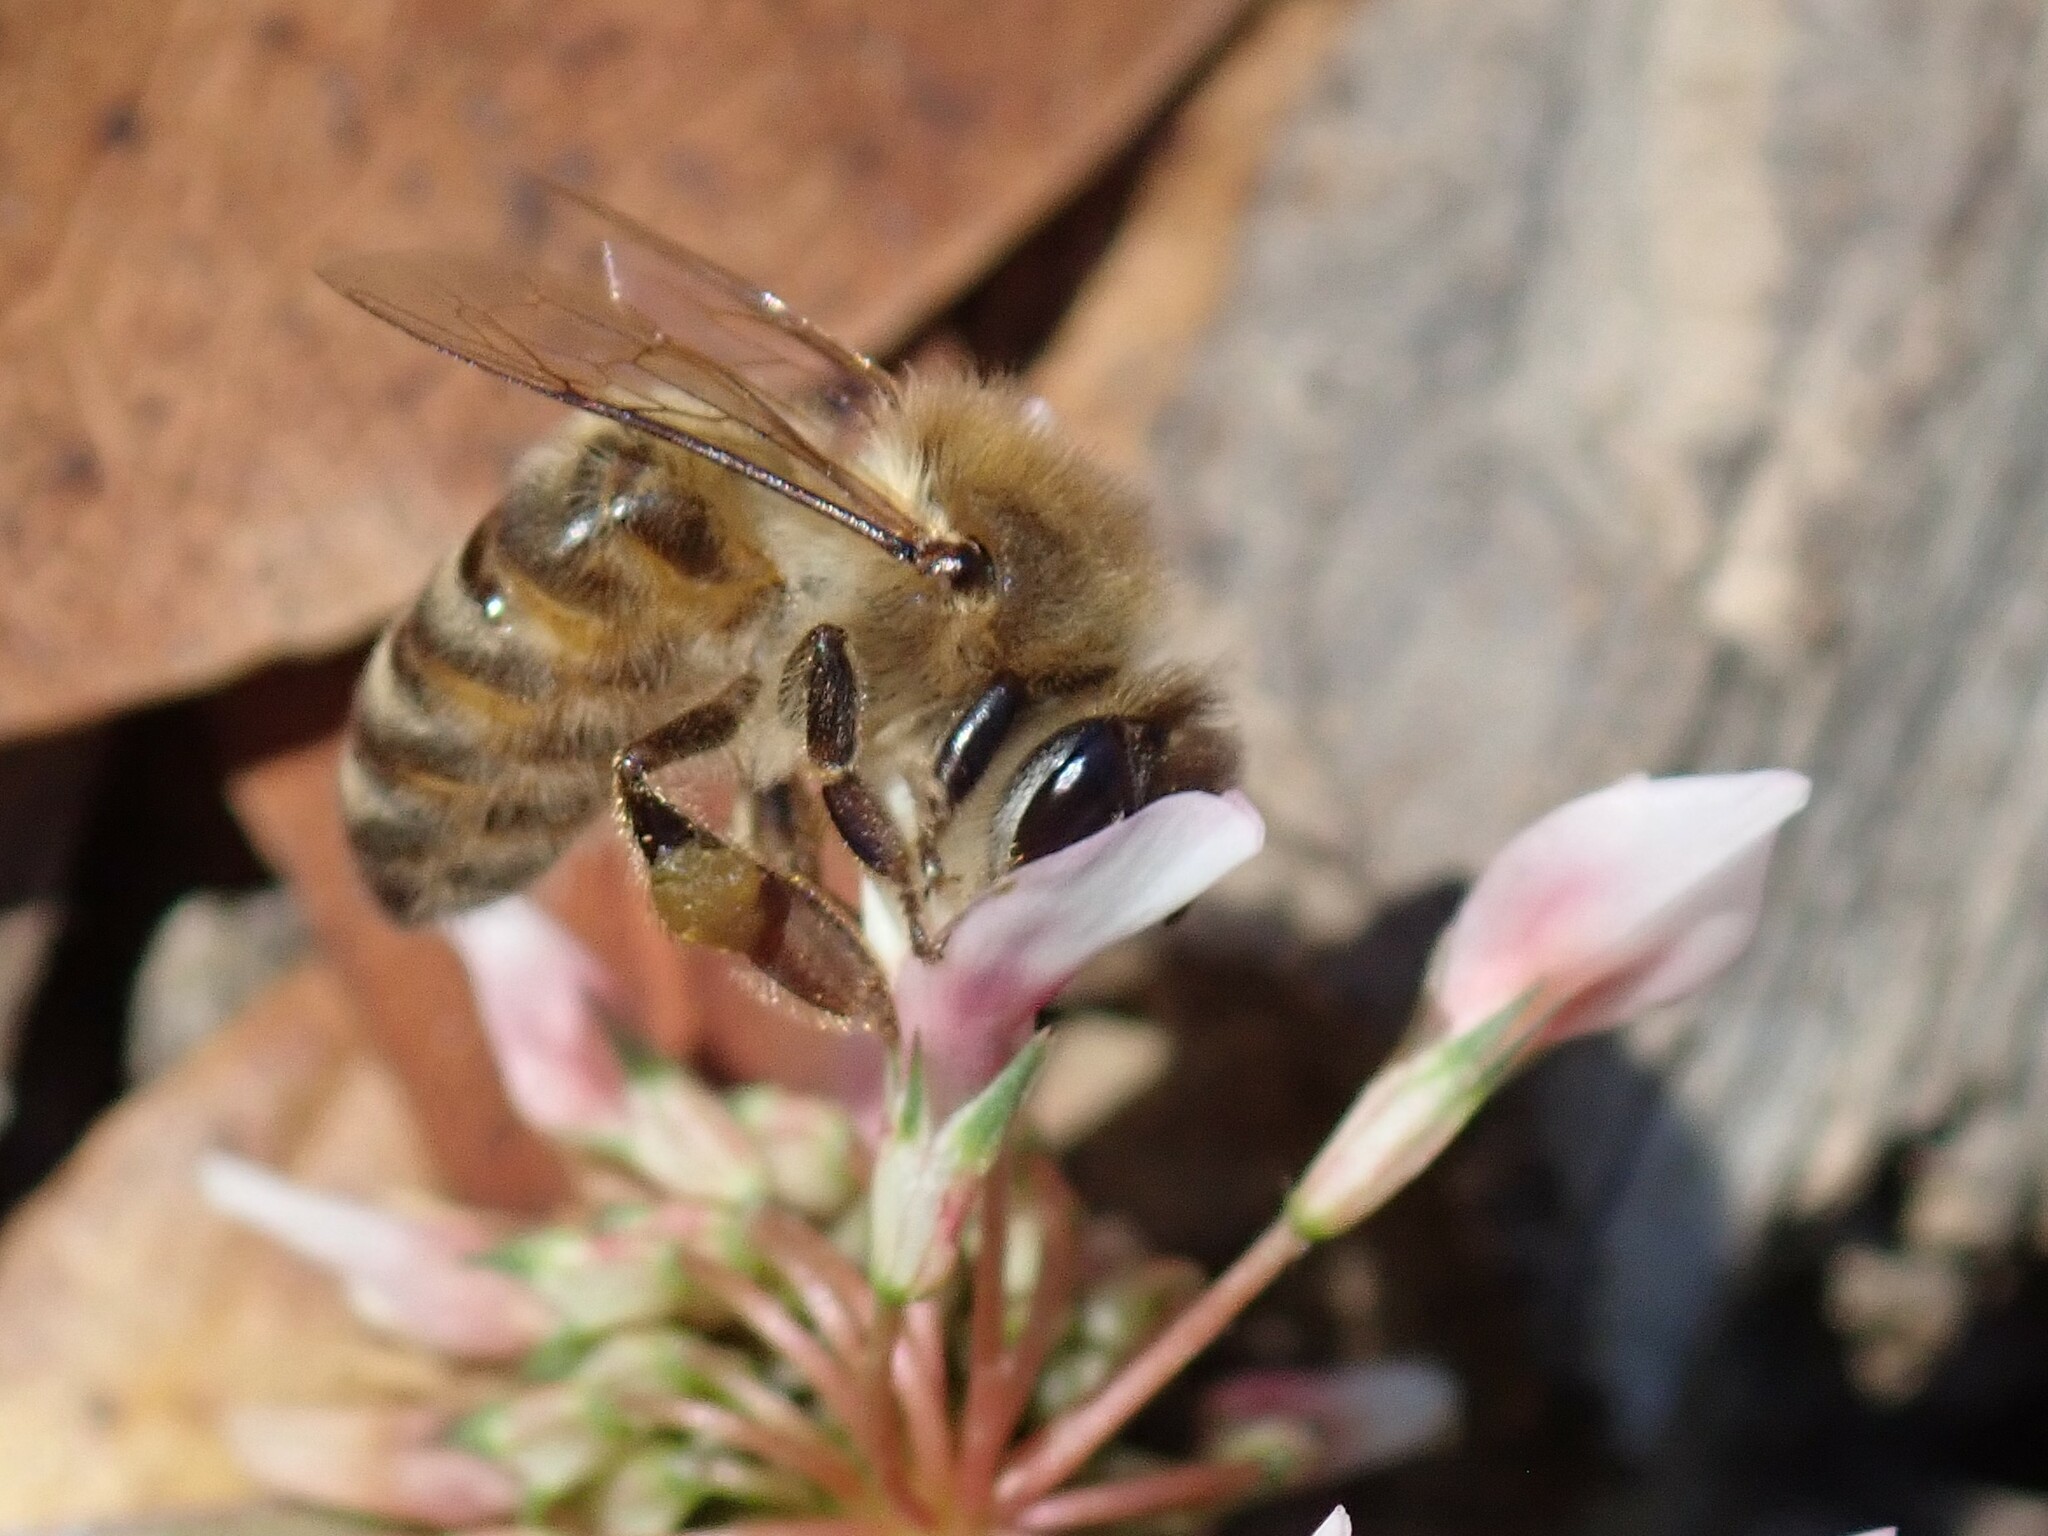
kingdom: Animalia
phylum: Arthropoda
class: Insecta
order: Hymenoptera
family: Apidae
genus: Apis
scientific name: Apis mellifera
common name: Honey bee
